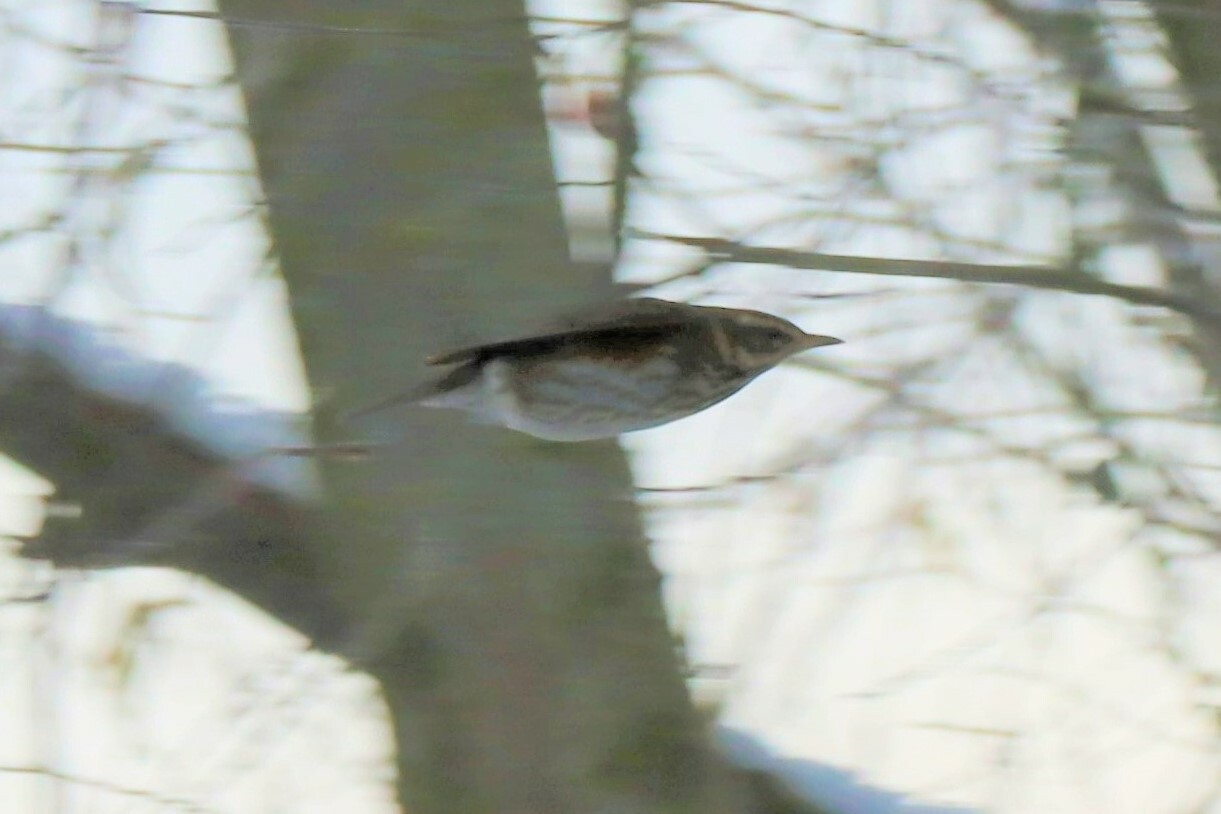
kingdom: Animalia
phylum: Chordata
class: Aves
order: Passeriformes
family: Turdidae
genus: Turdus
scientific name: Turdus iliacus
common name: Redwing
